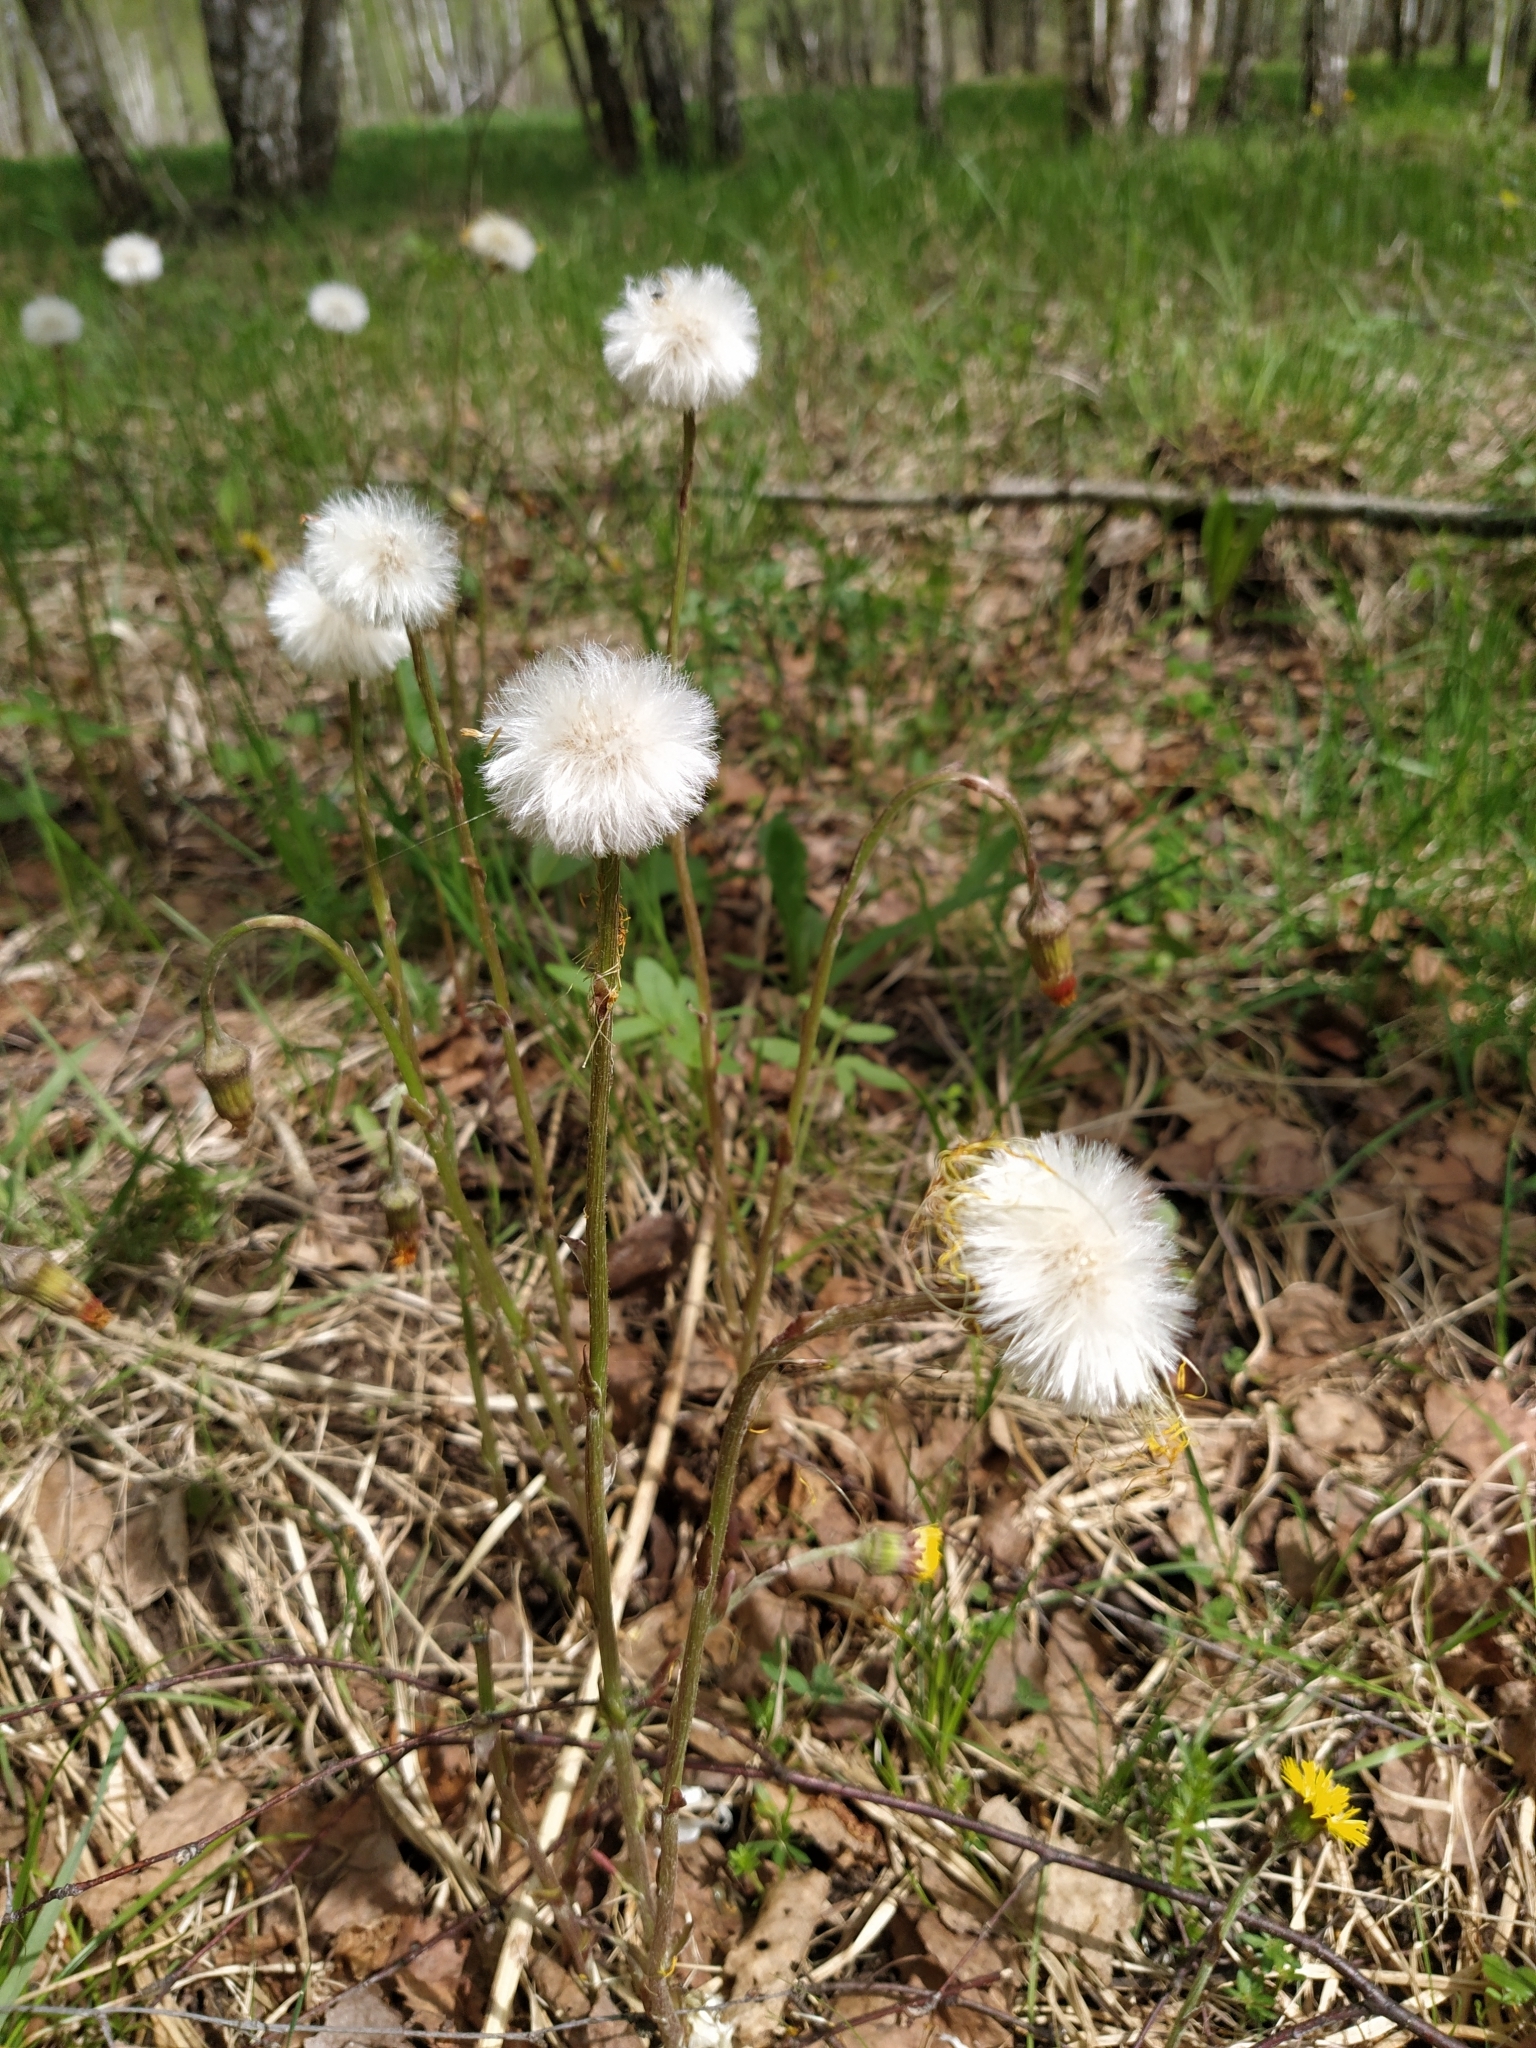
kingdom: Plantae
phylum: Tracheophyta
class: Magnoliopsida
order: Asterales
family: Asteraceae
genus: Tussilago
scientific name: Tussilago farfara
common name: Coltsfoot
